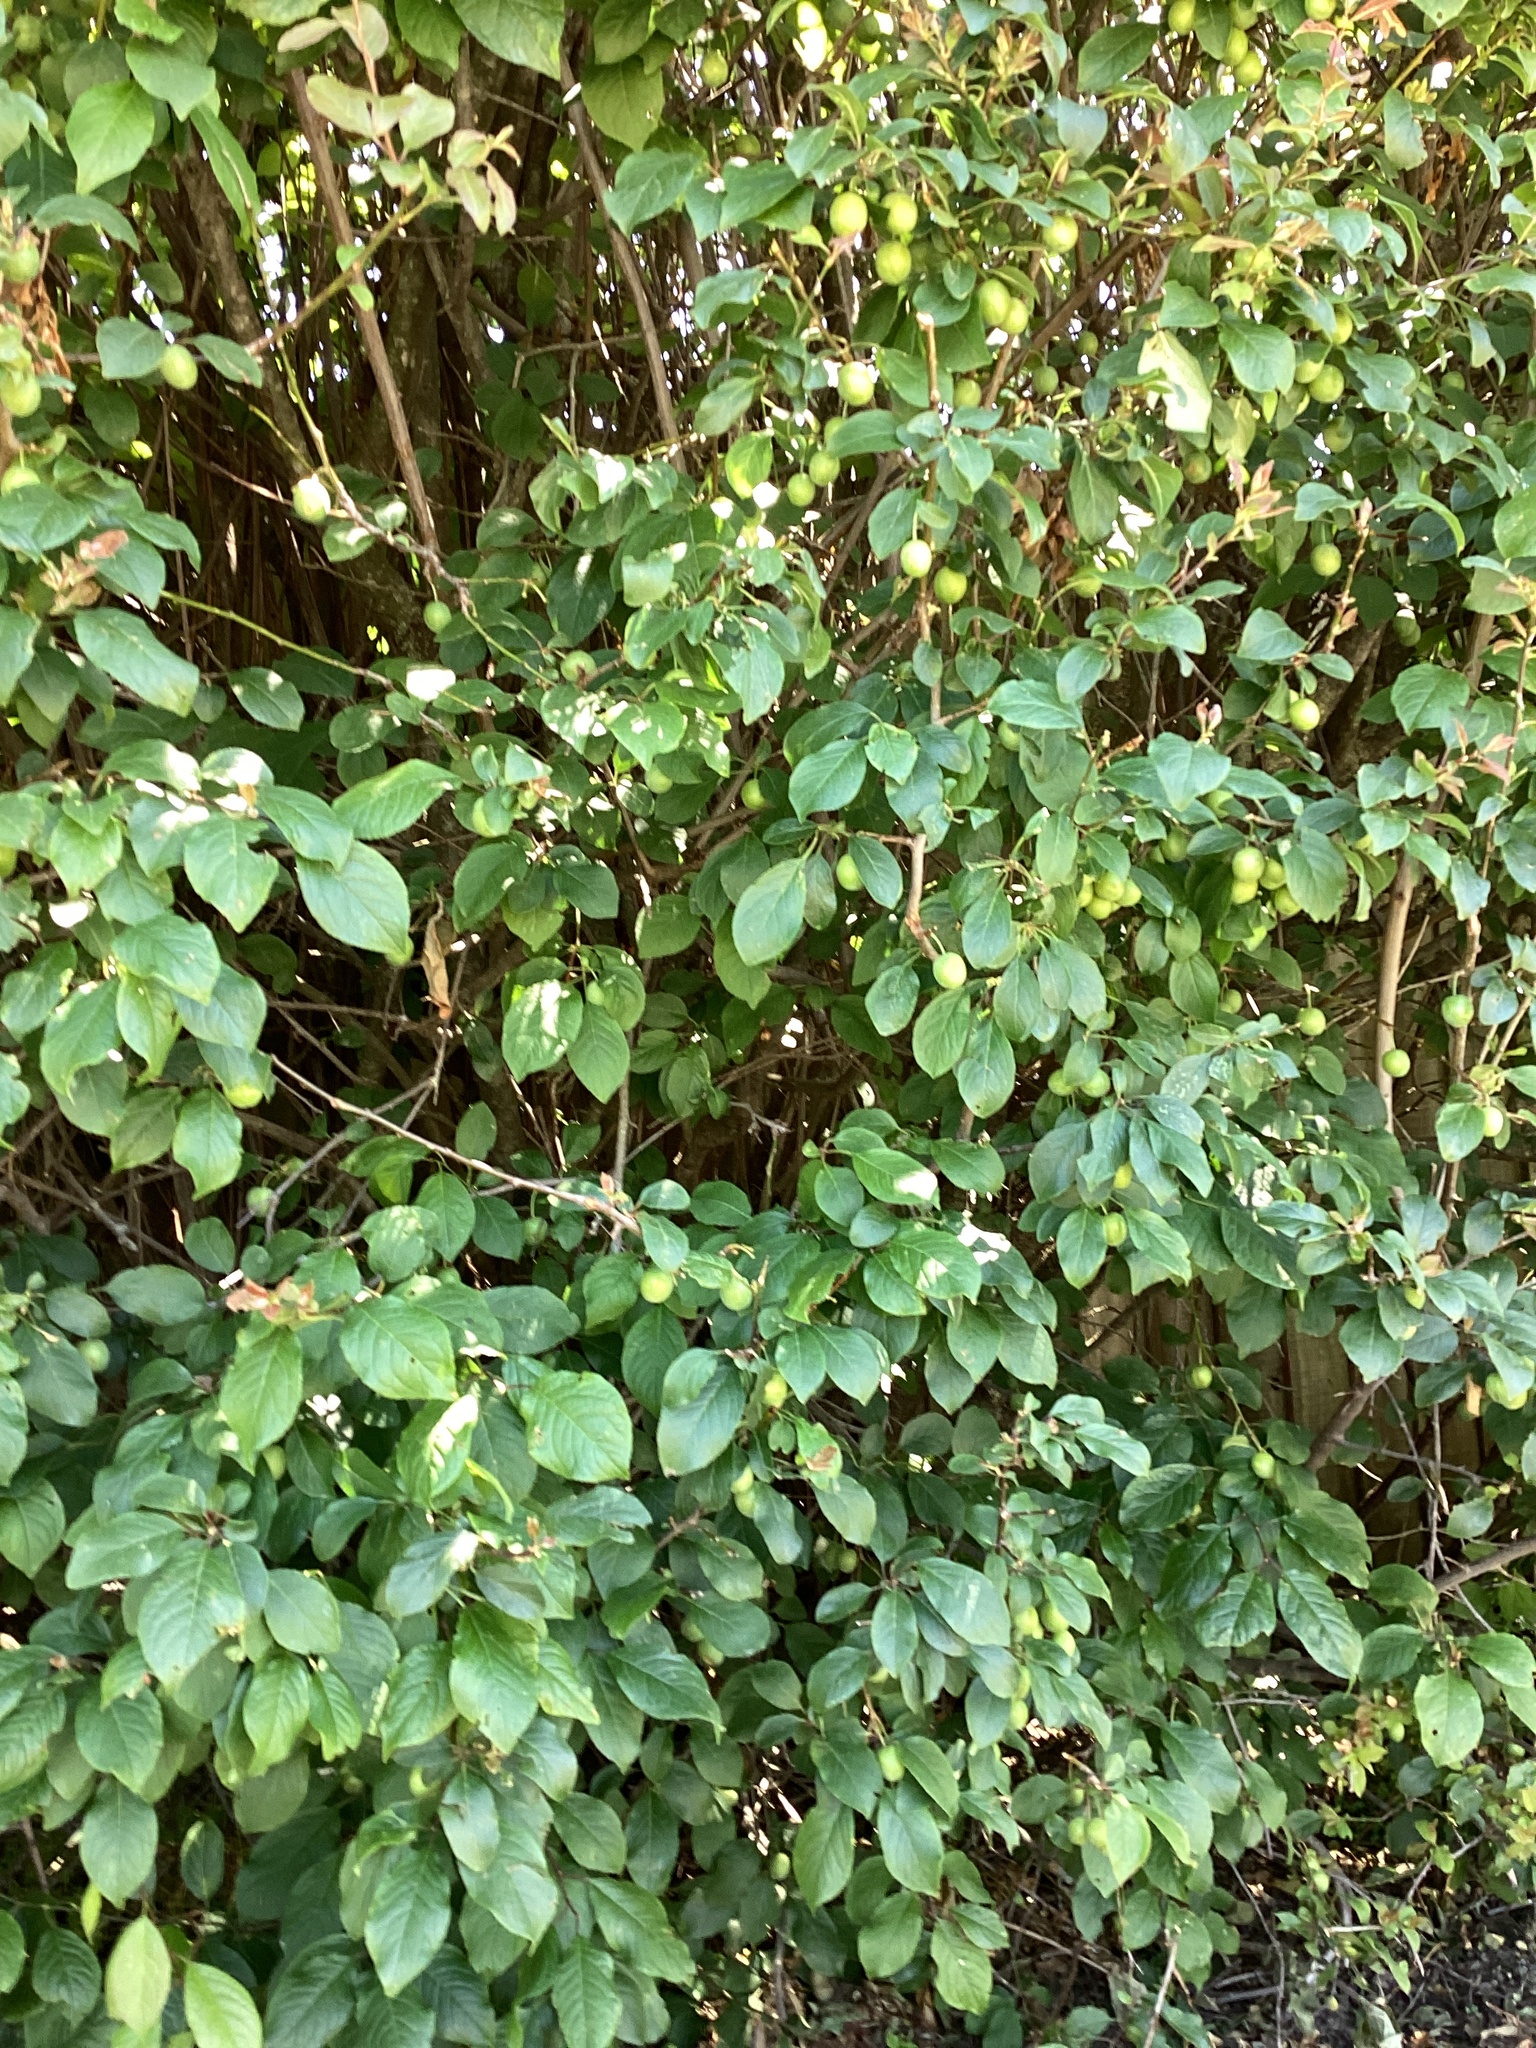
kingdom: Plantae
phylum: Tracheophyta
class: Magnoliopsida
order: Rosales
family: Rosaceae
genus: Prunus
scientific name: Prunus domestica
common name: Wild plum
